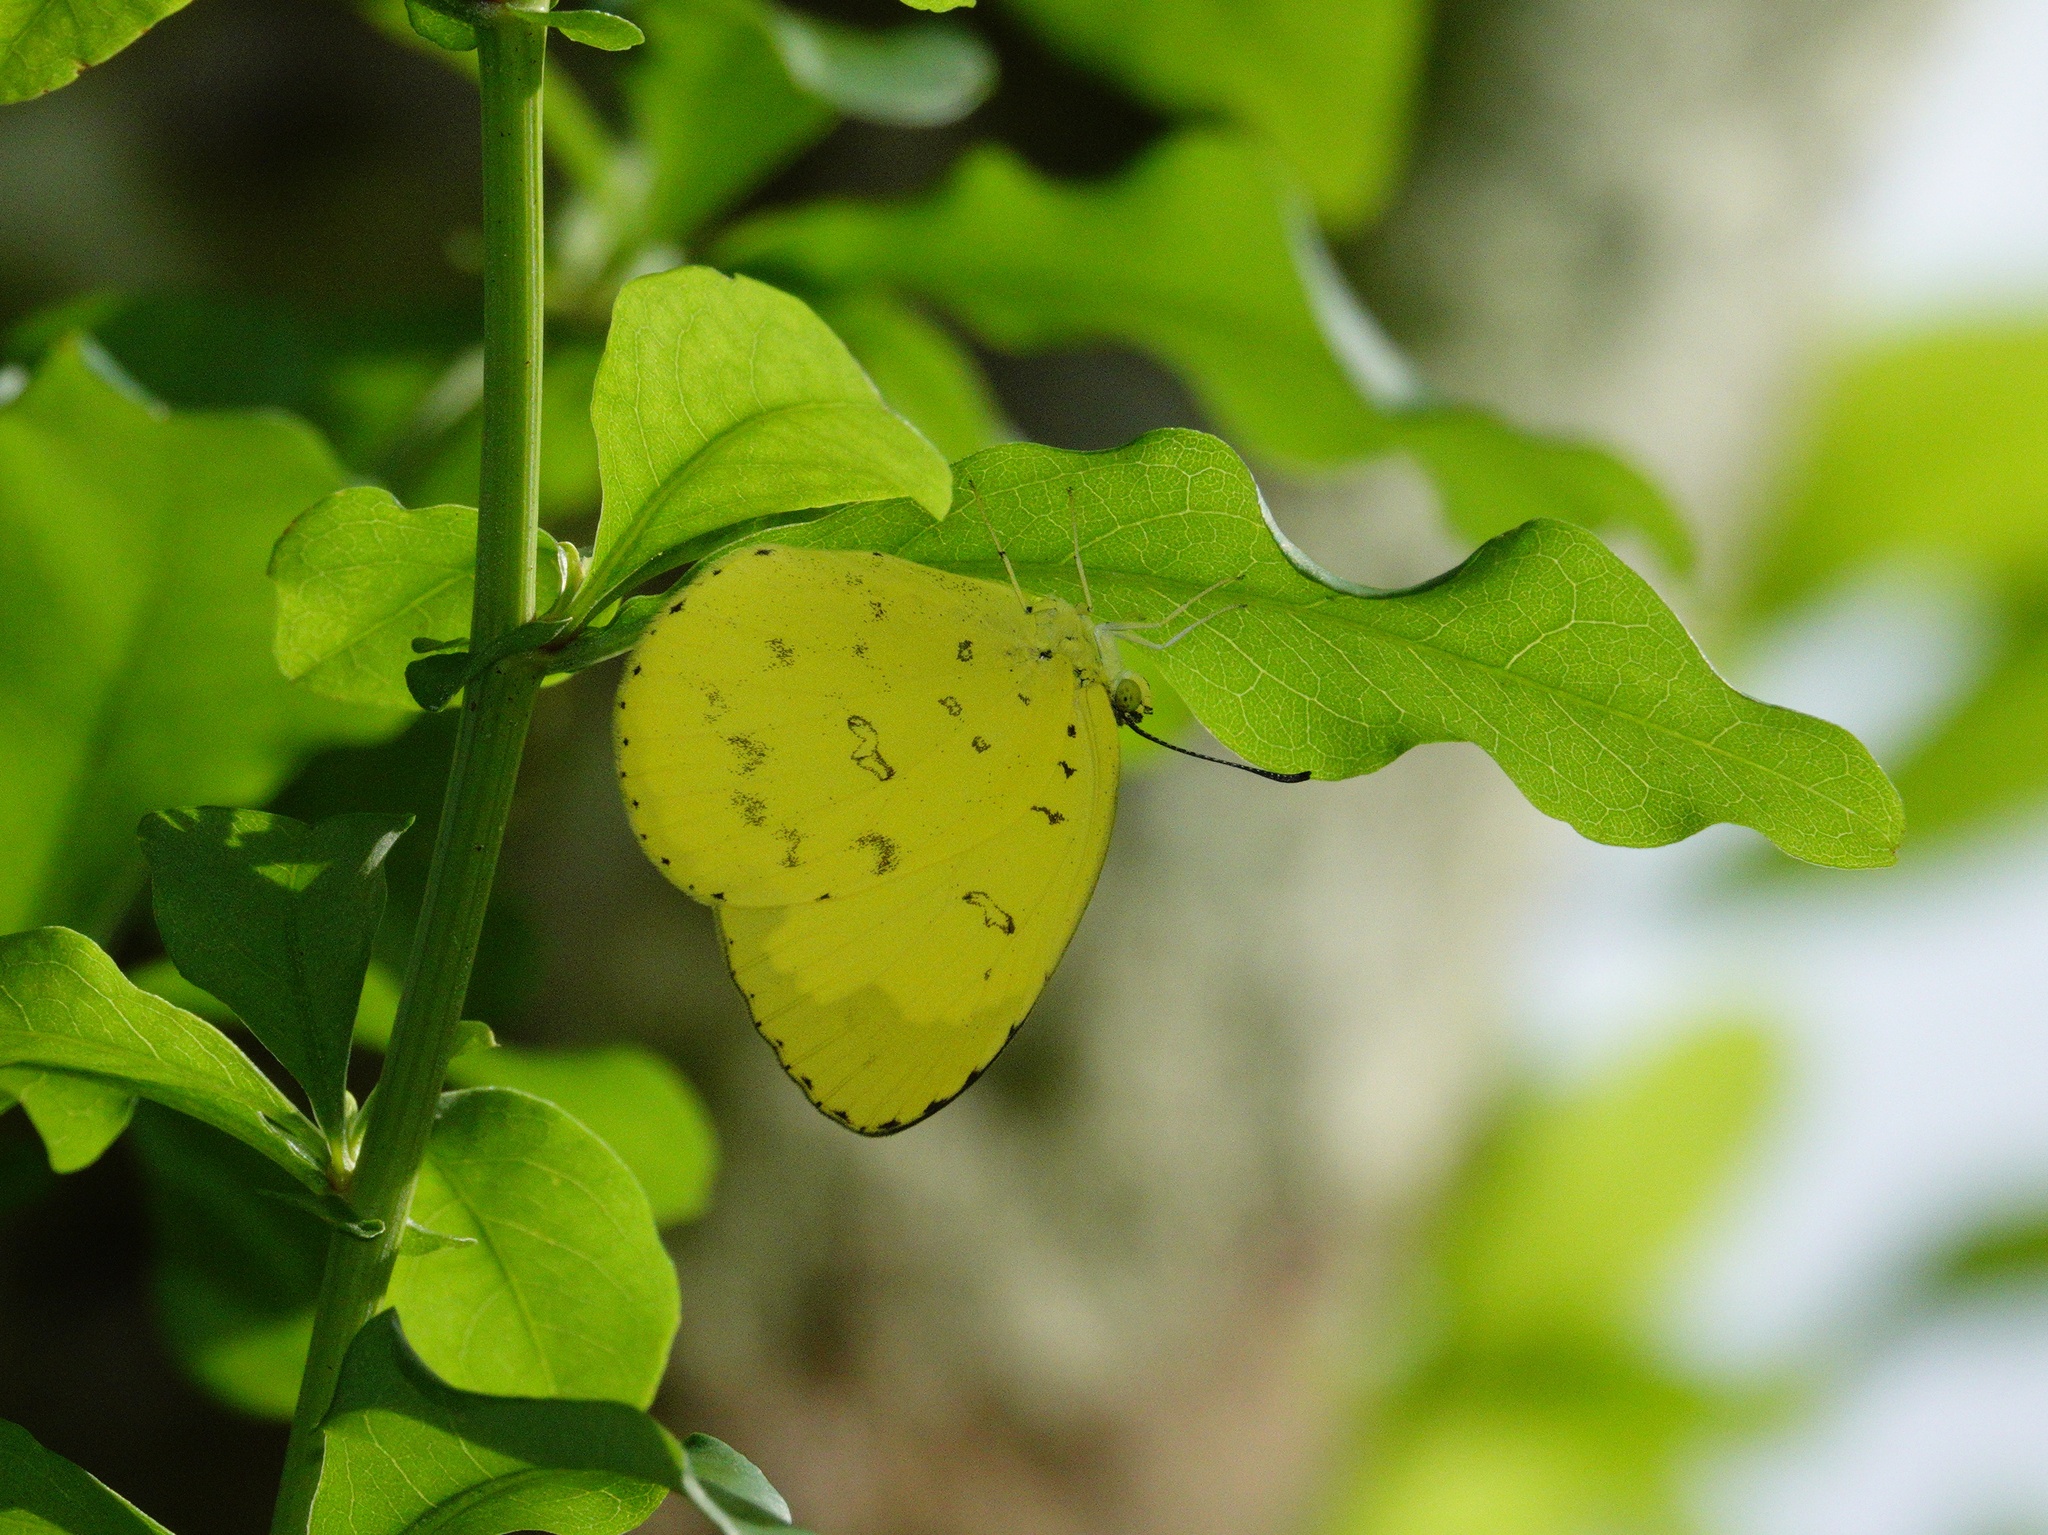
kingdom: Animalia
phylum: Arthropoda
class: Insecta
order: Lepidoptera
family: Pieridae
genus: Eurema
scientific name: Eurema blanda
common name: Three-spot grass yellow
